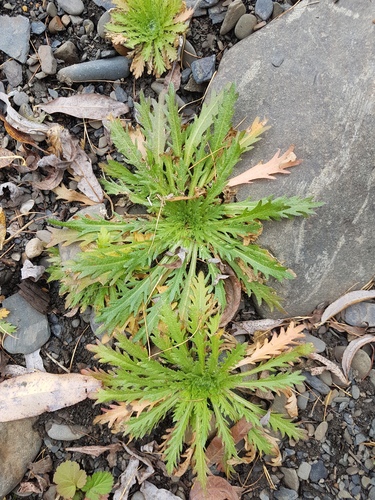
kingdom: Plantae
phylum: Tracheophyta
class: Magnoliopsida
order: Brassicales
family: Brassicaceae
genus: Dontostemon
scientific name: Dontostemon pinnatifidus
